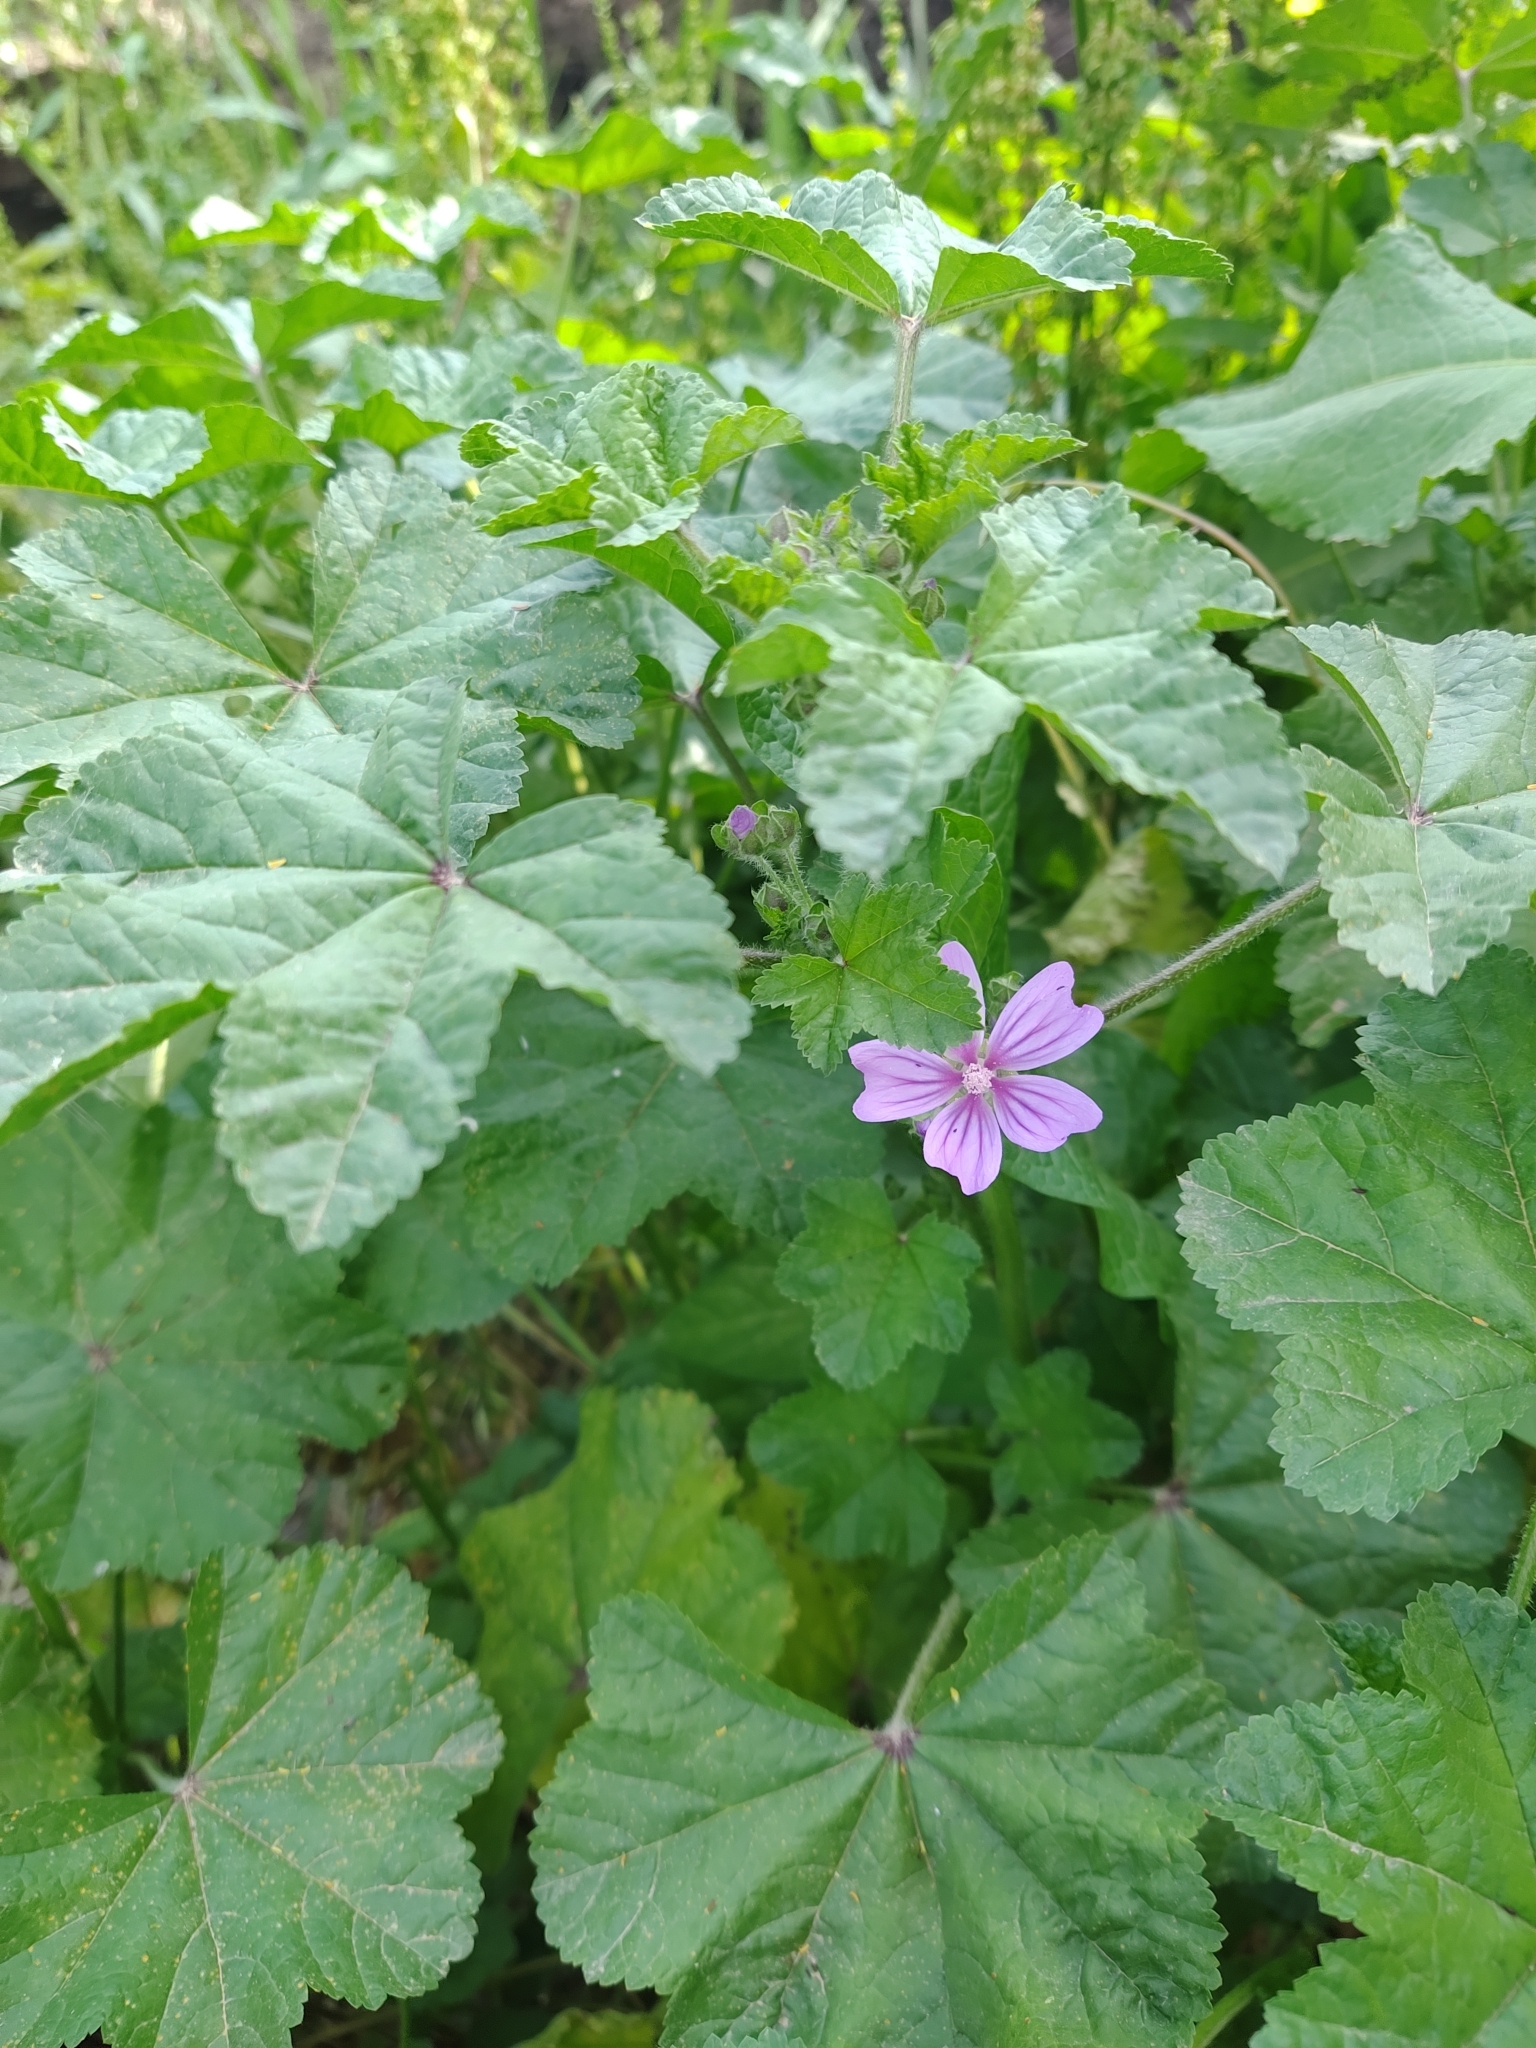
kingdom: Plantae
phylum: Tracheophyta
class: Magnoliopsida
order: Malvales
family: Malvaceae
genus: Malva
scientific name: Malva sylvestris
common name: Common mallow
